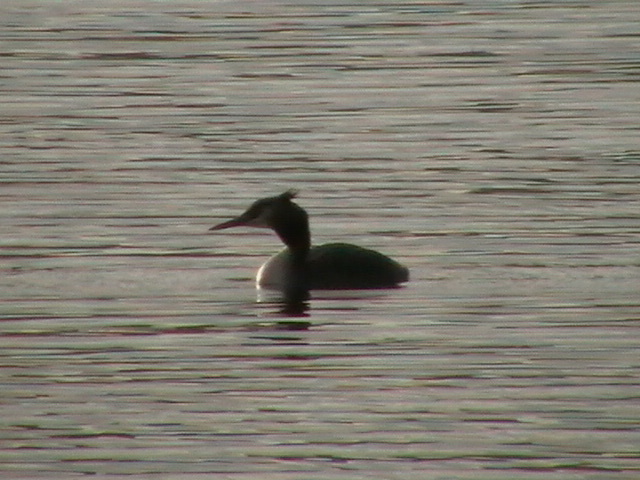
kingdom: Animalia
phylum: Chordata
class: Aves
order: Podicipediformes
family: Podicipedidae
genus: Podiceps
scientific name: Podiceps cristatus
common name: Great crested grebe
